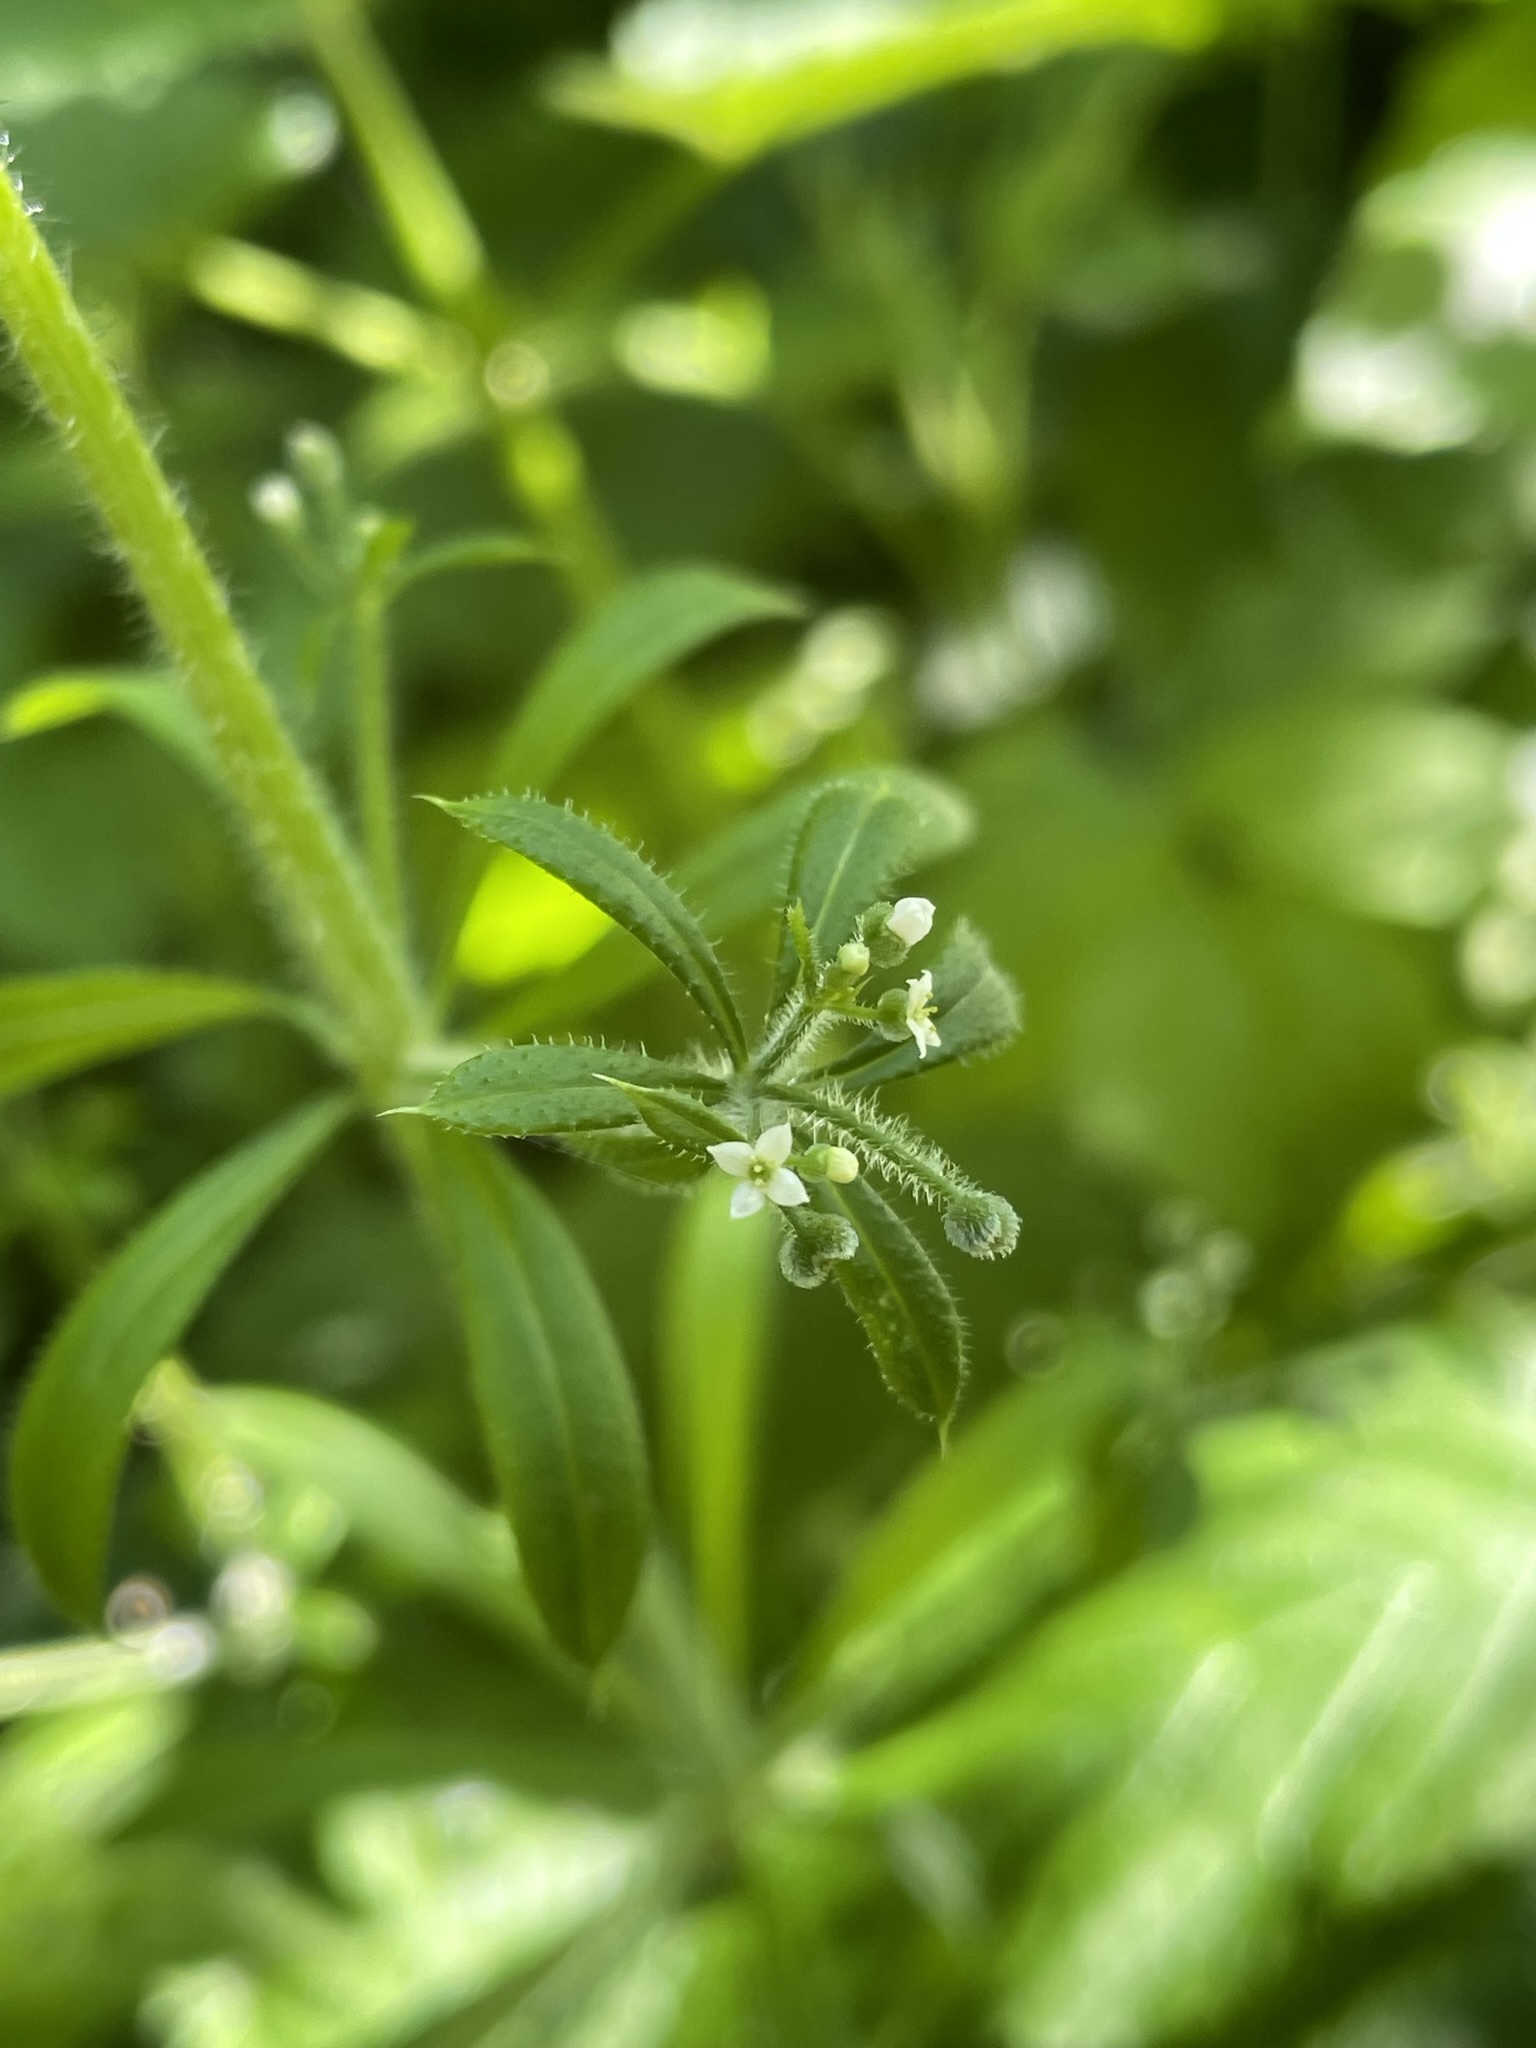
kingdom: Plantae
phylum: Tracheophyta
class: Magnoliopsida
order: Gentianales
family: Rubiaceae
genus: Galium
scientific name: Galium aparine
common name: Cleavers
